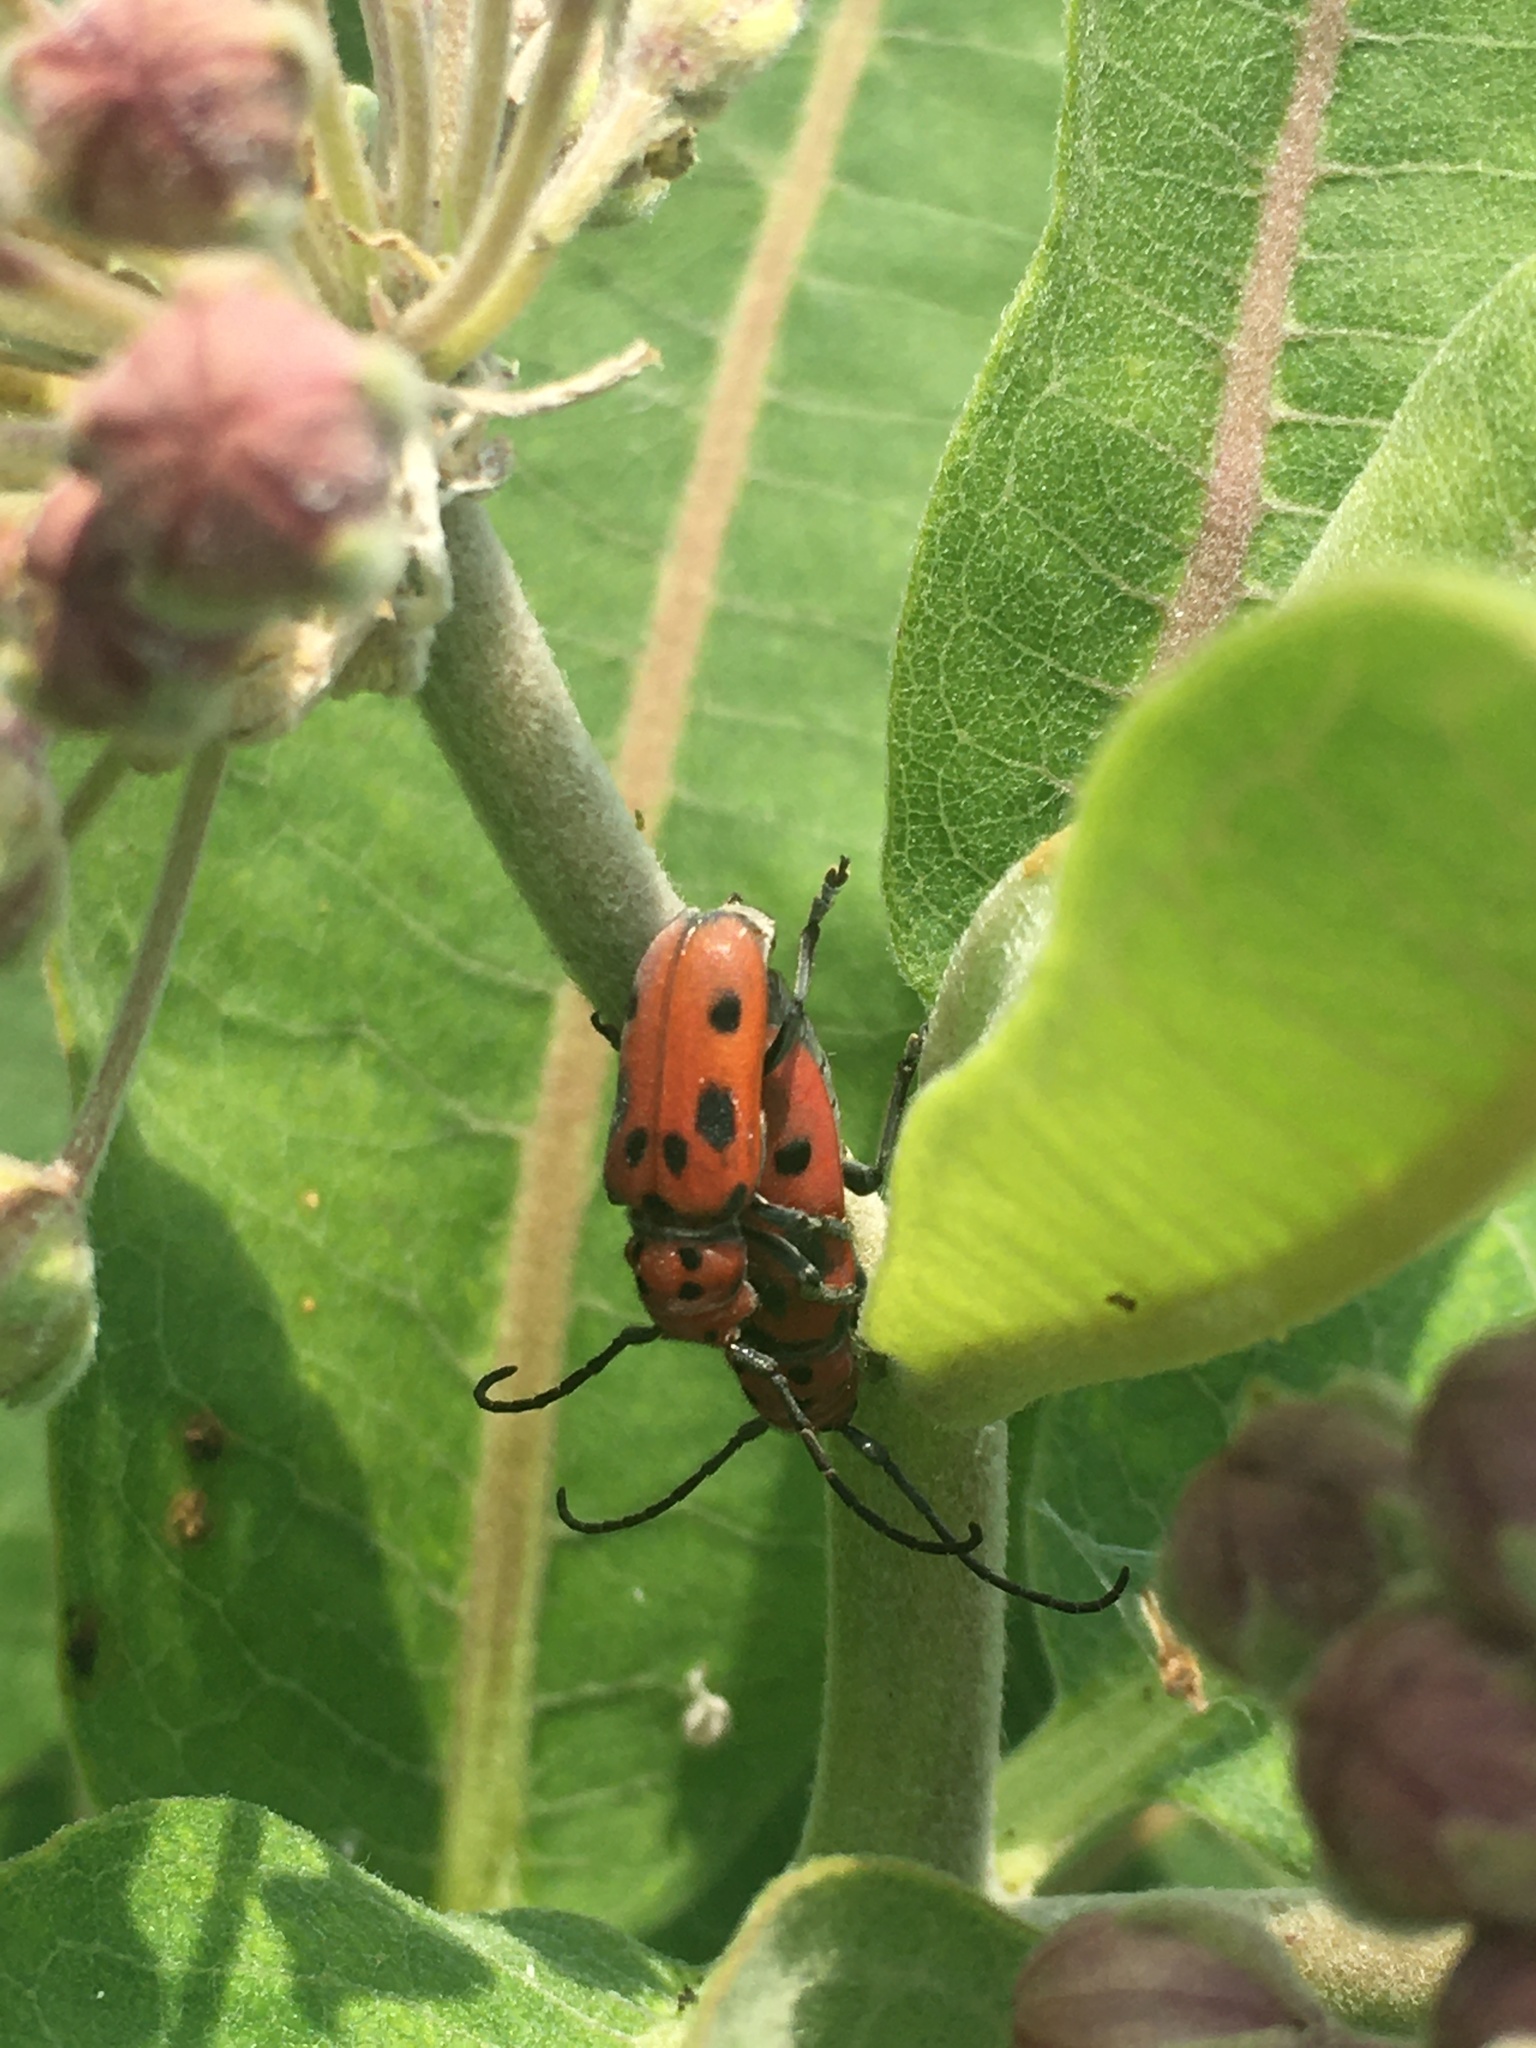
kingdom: Animalia
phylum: Arthropoda
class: Insecta
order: Coleoptera
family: Cerambycidae
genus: Tetraopes
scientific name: Tetraopes tetrophthalmus
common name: Red milkweed beetle
